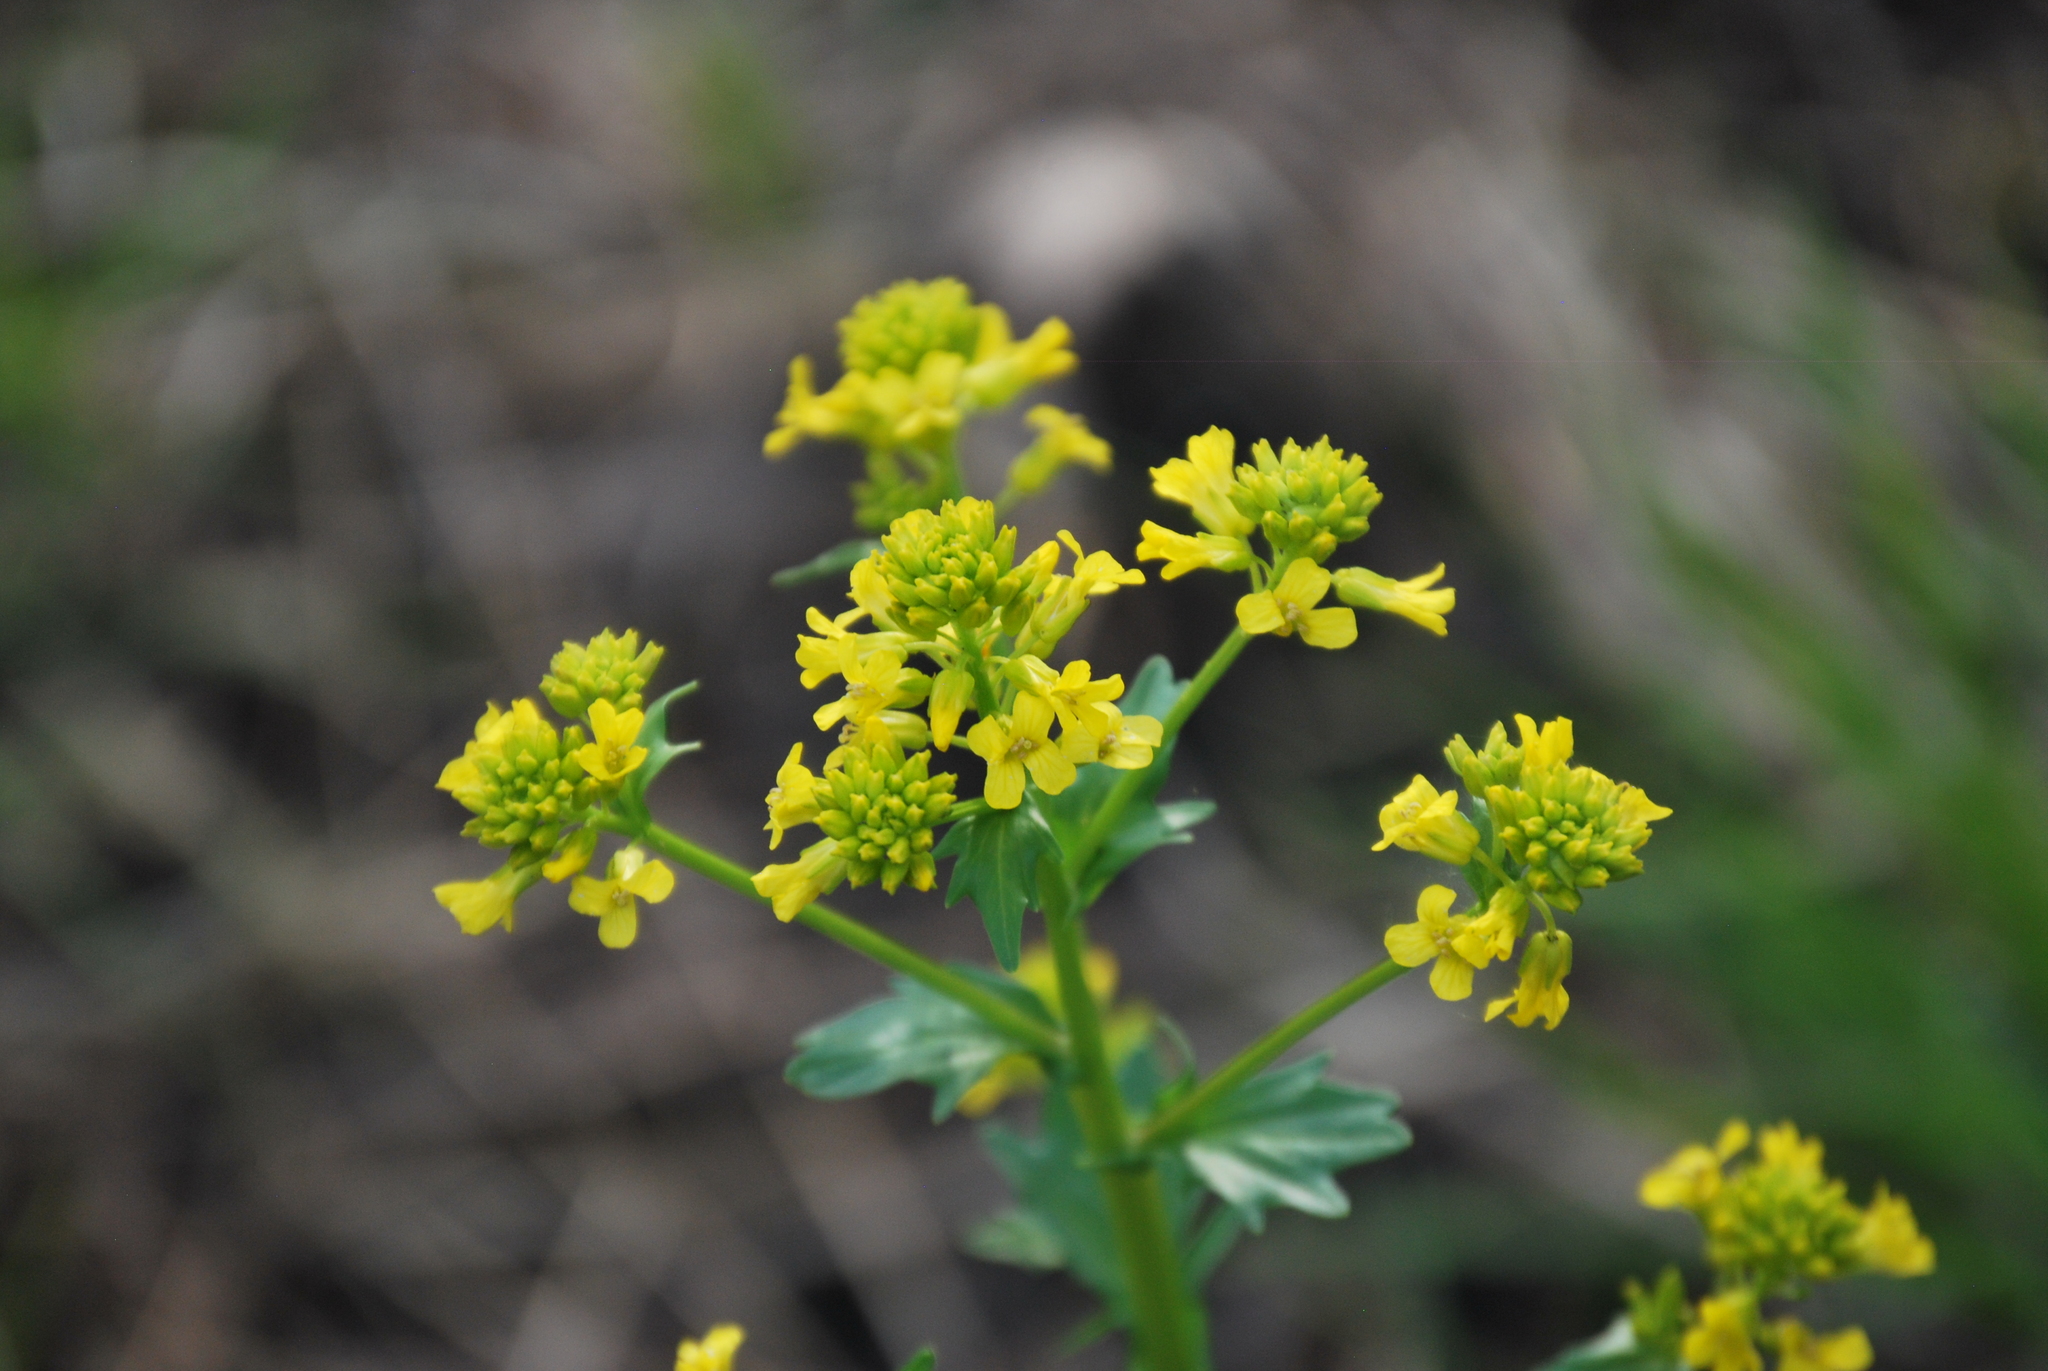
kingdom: Plantae
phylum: Tracheophyta
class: Magnoliopsida
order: Brassicales
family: Brassicaceae
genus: Barbarea
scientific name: Barbarea vulgaris
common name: Cressy-greens
